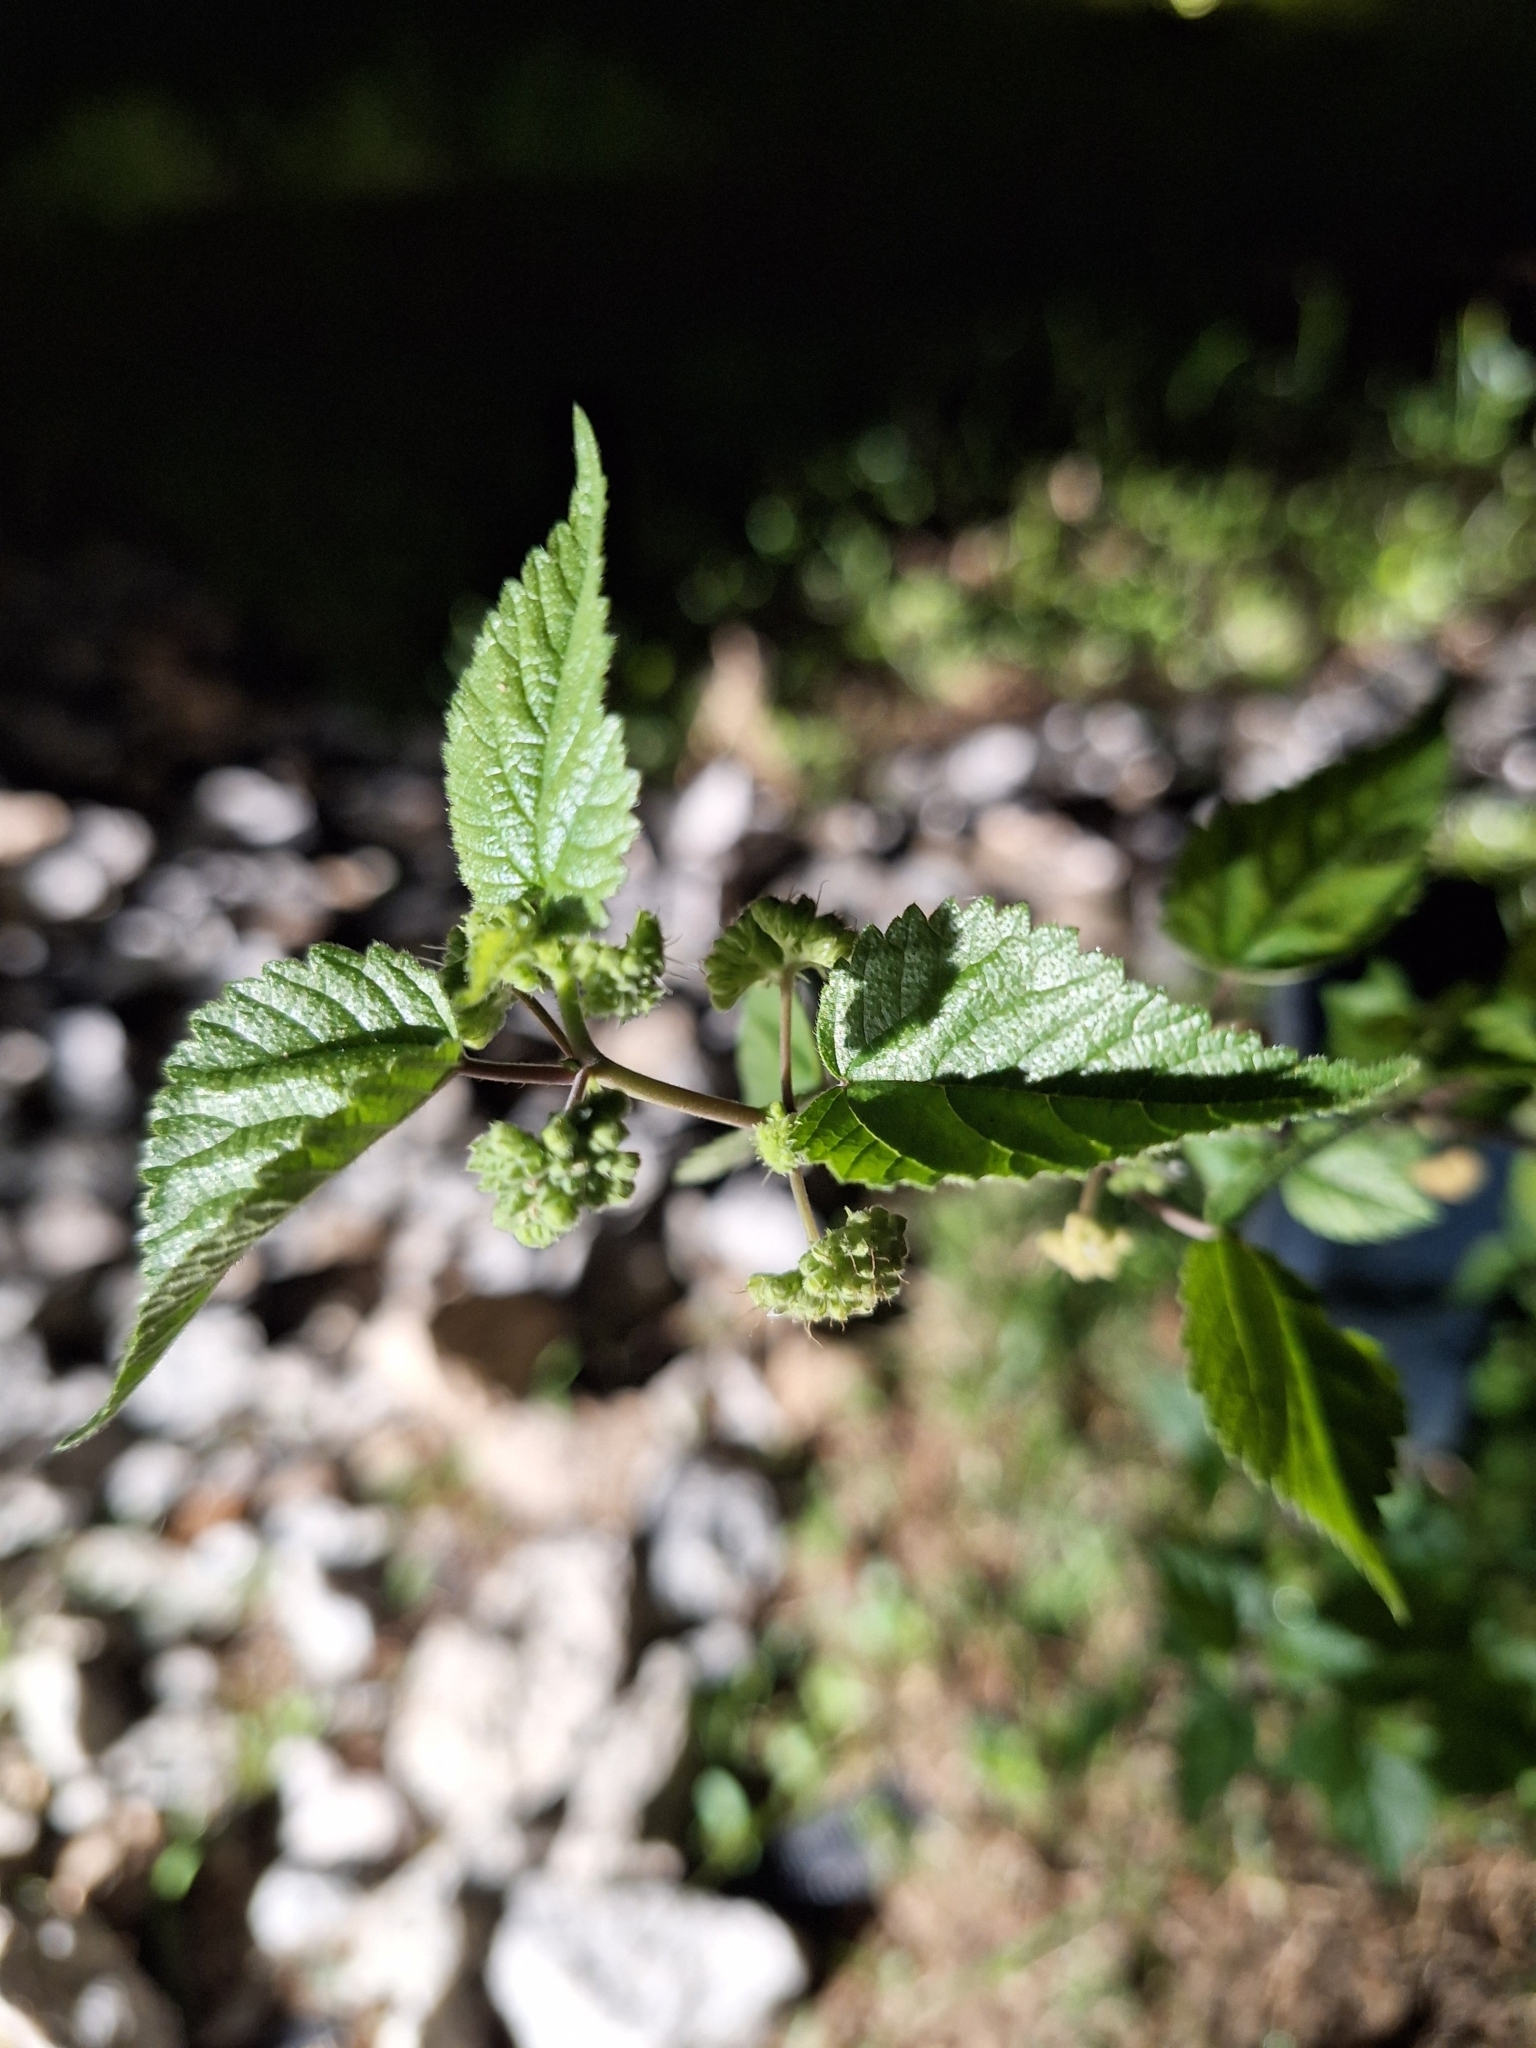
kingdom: Plantae
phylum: Tracheophyta
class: Magnoliopsida
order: Rosales
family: Moraceae
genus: Fatoua
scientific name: Fatoua villosa
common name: Hairy crabweed
